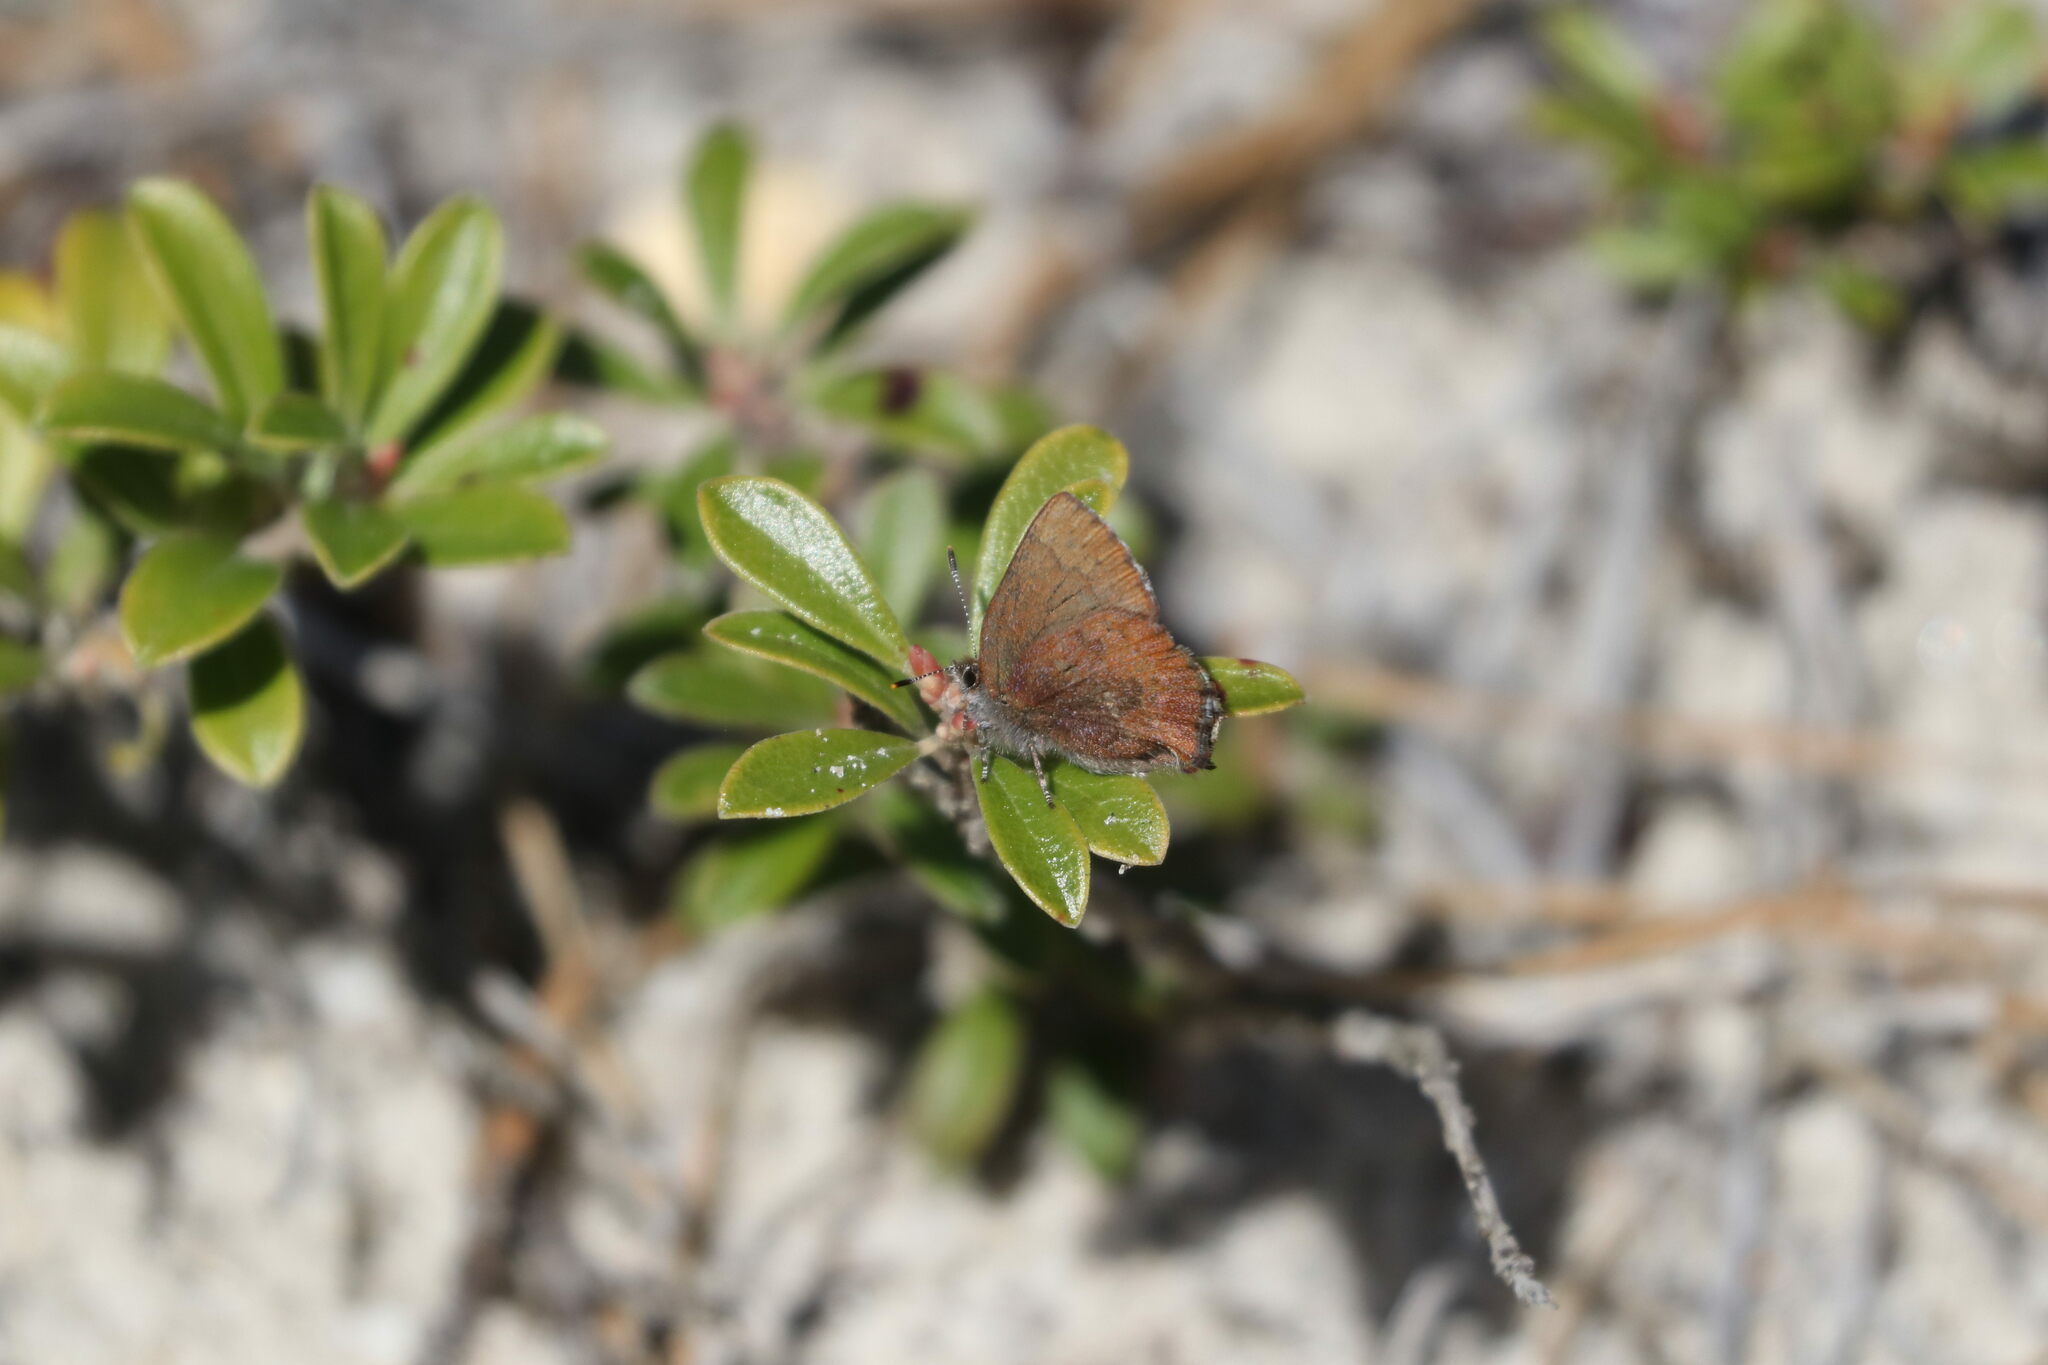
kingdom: Animalia
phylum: Arthropoda
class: Insecta
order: Lepidoptera
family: Lycaenidae
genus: Incisalia
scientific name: Incisalia irioides
